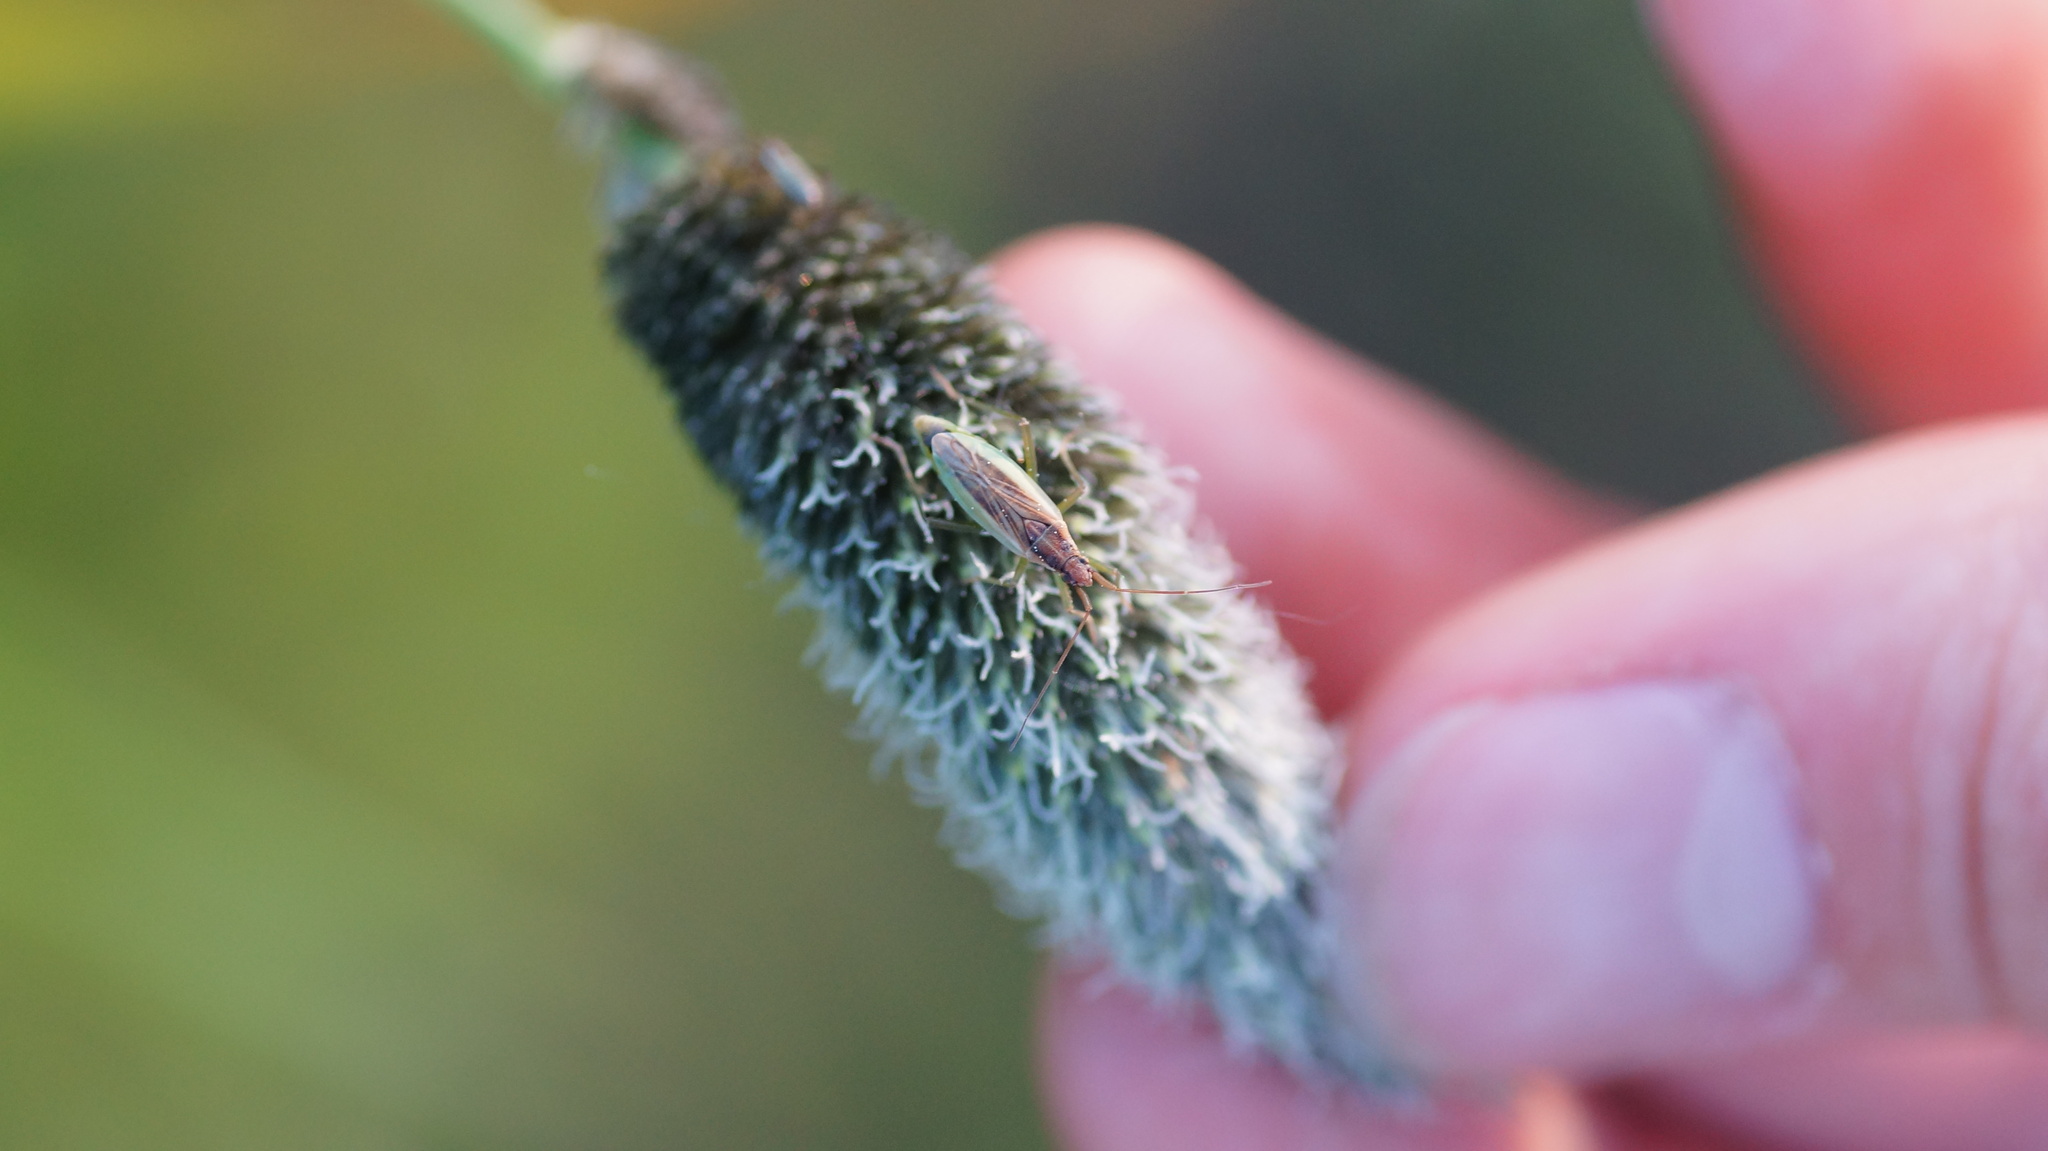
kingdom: Animalia
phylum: Arthropoda
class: Insecta
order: Hemiptera
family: Miridae
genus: Stenodema
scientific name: Stenodema holsata
